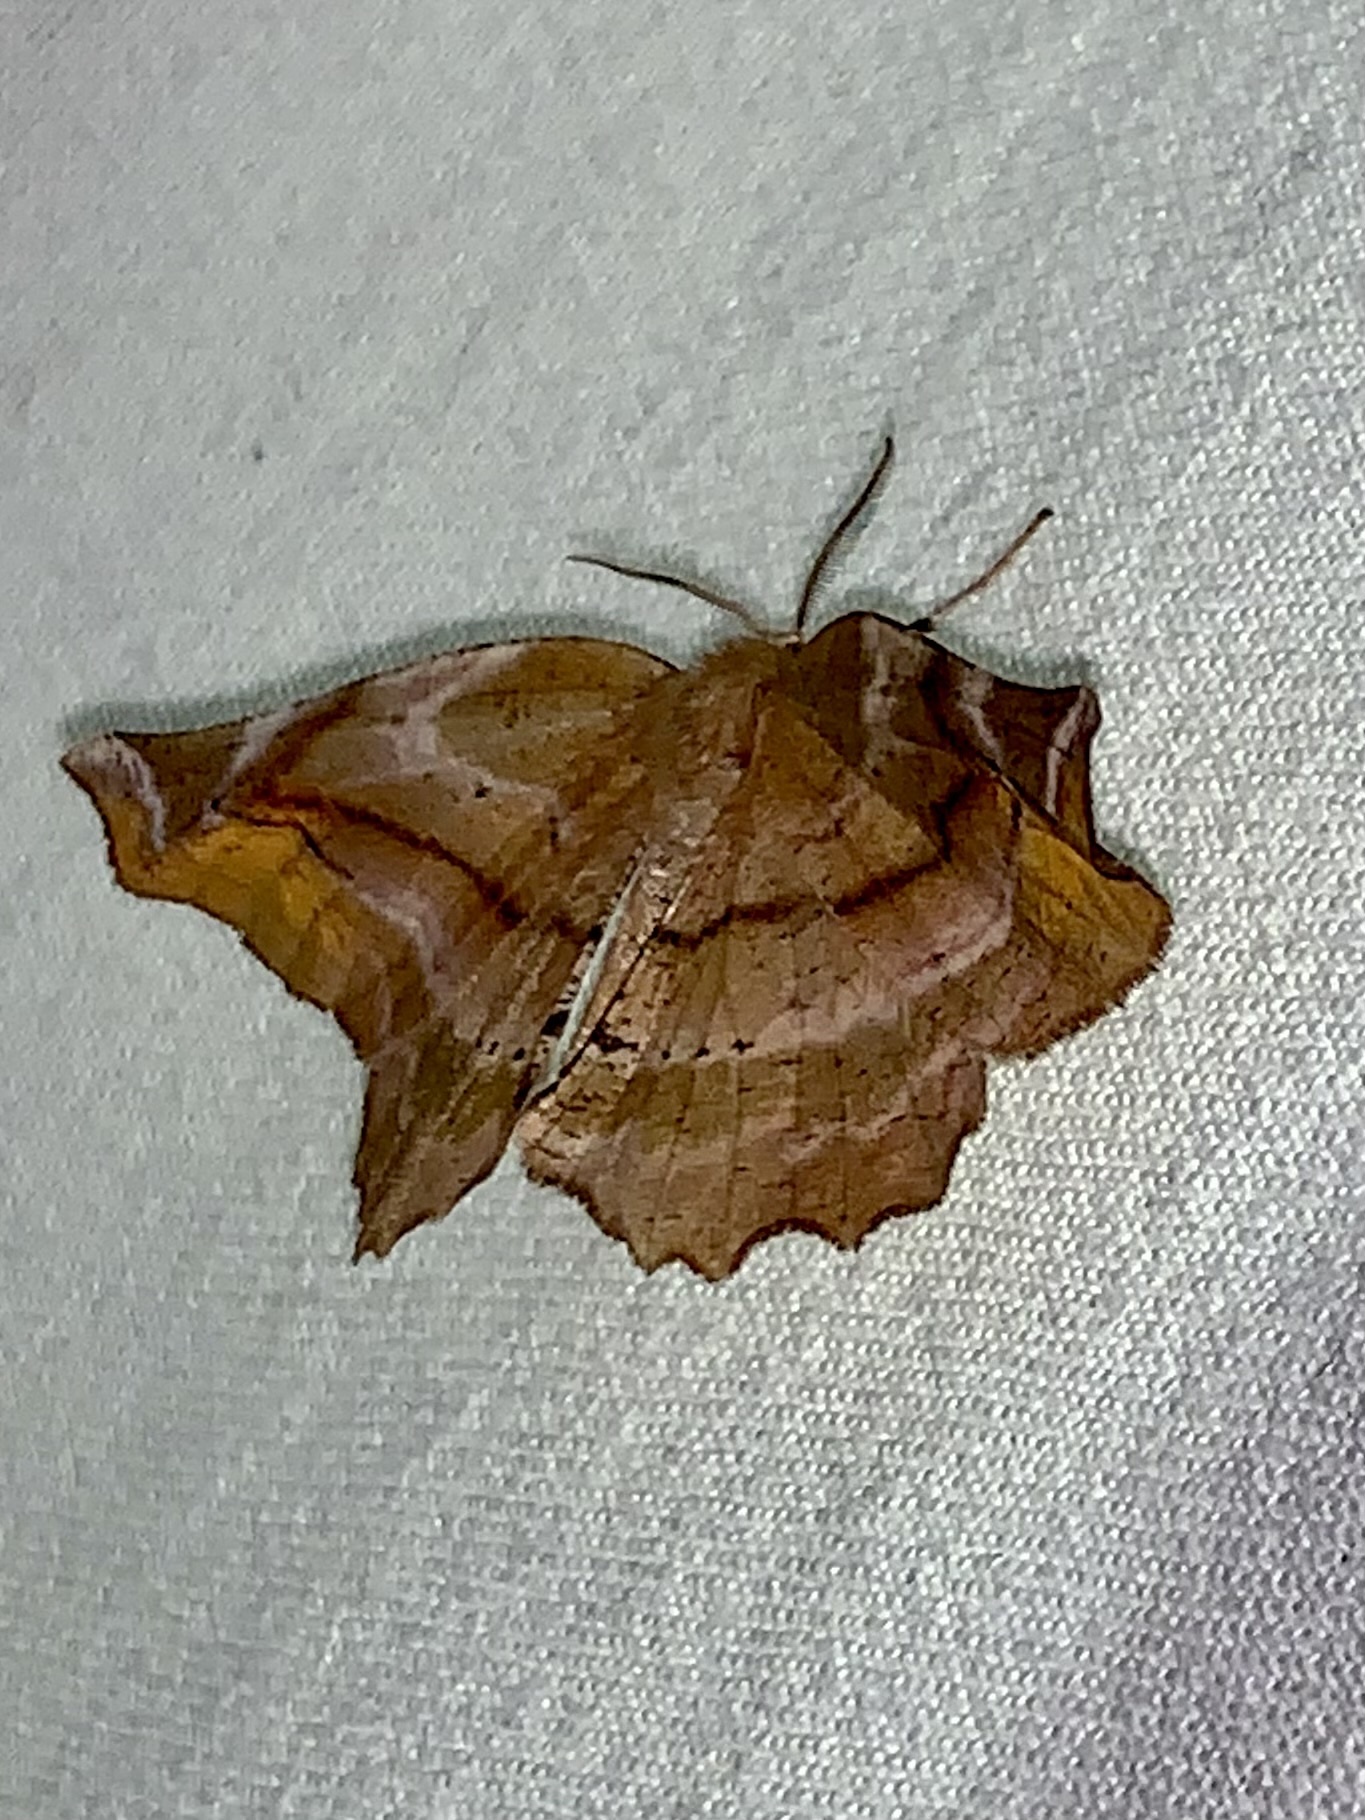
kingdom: Animalia
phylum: Arthropoda
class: Insecta
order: Lepidoptera
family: Geometridae
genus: Apeira
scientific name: Apeira syringaria
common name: Lilac beauty
